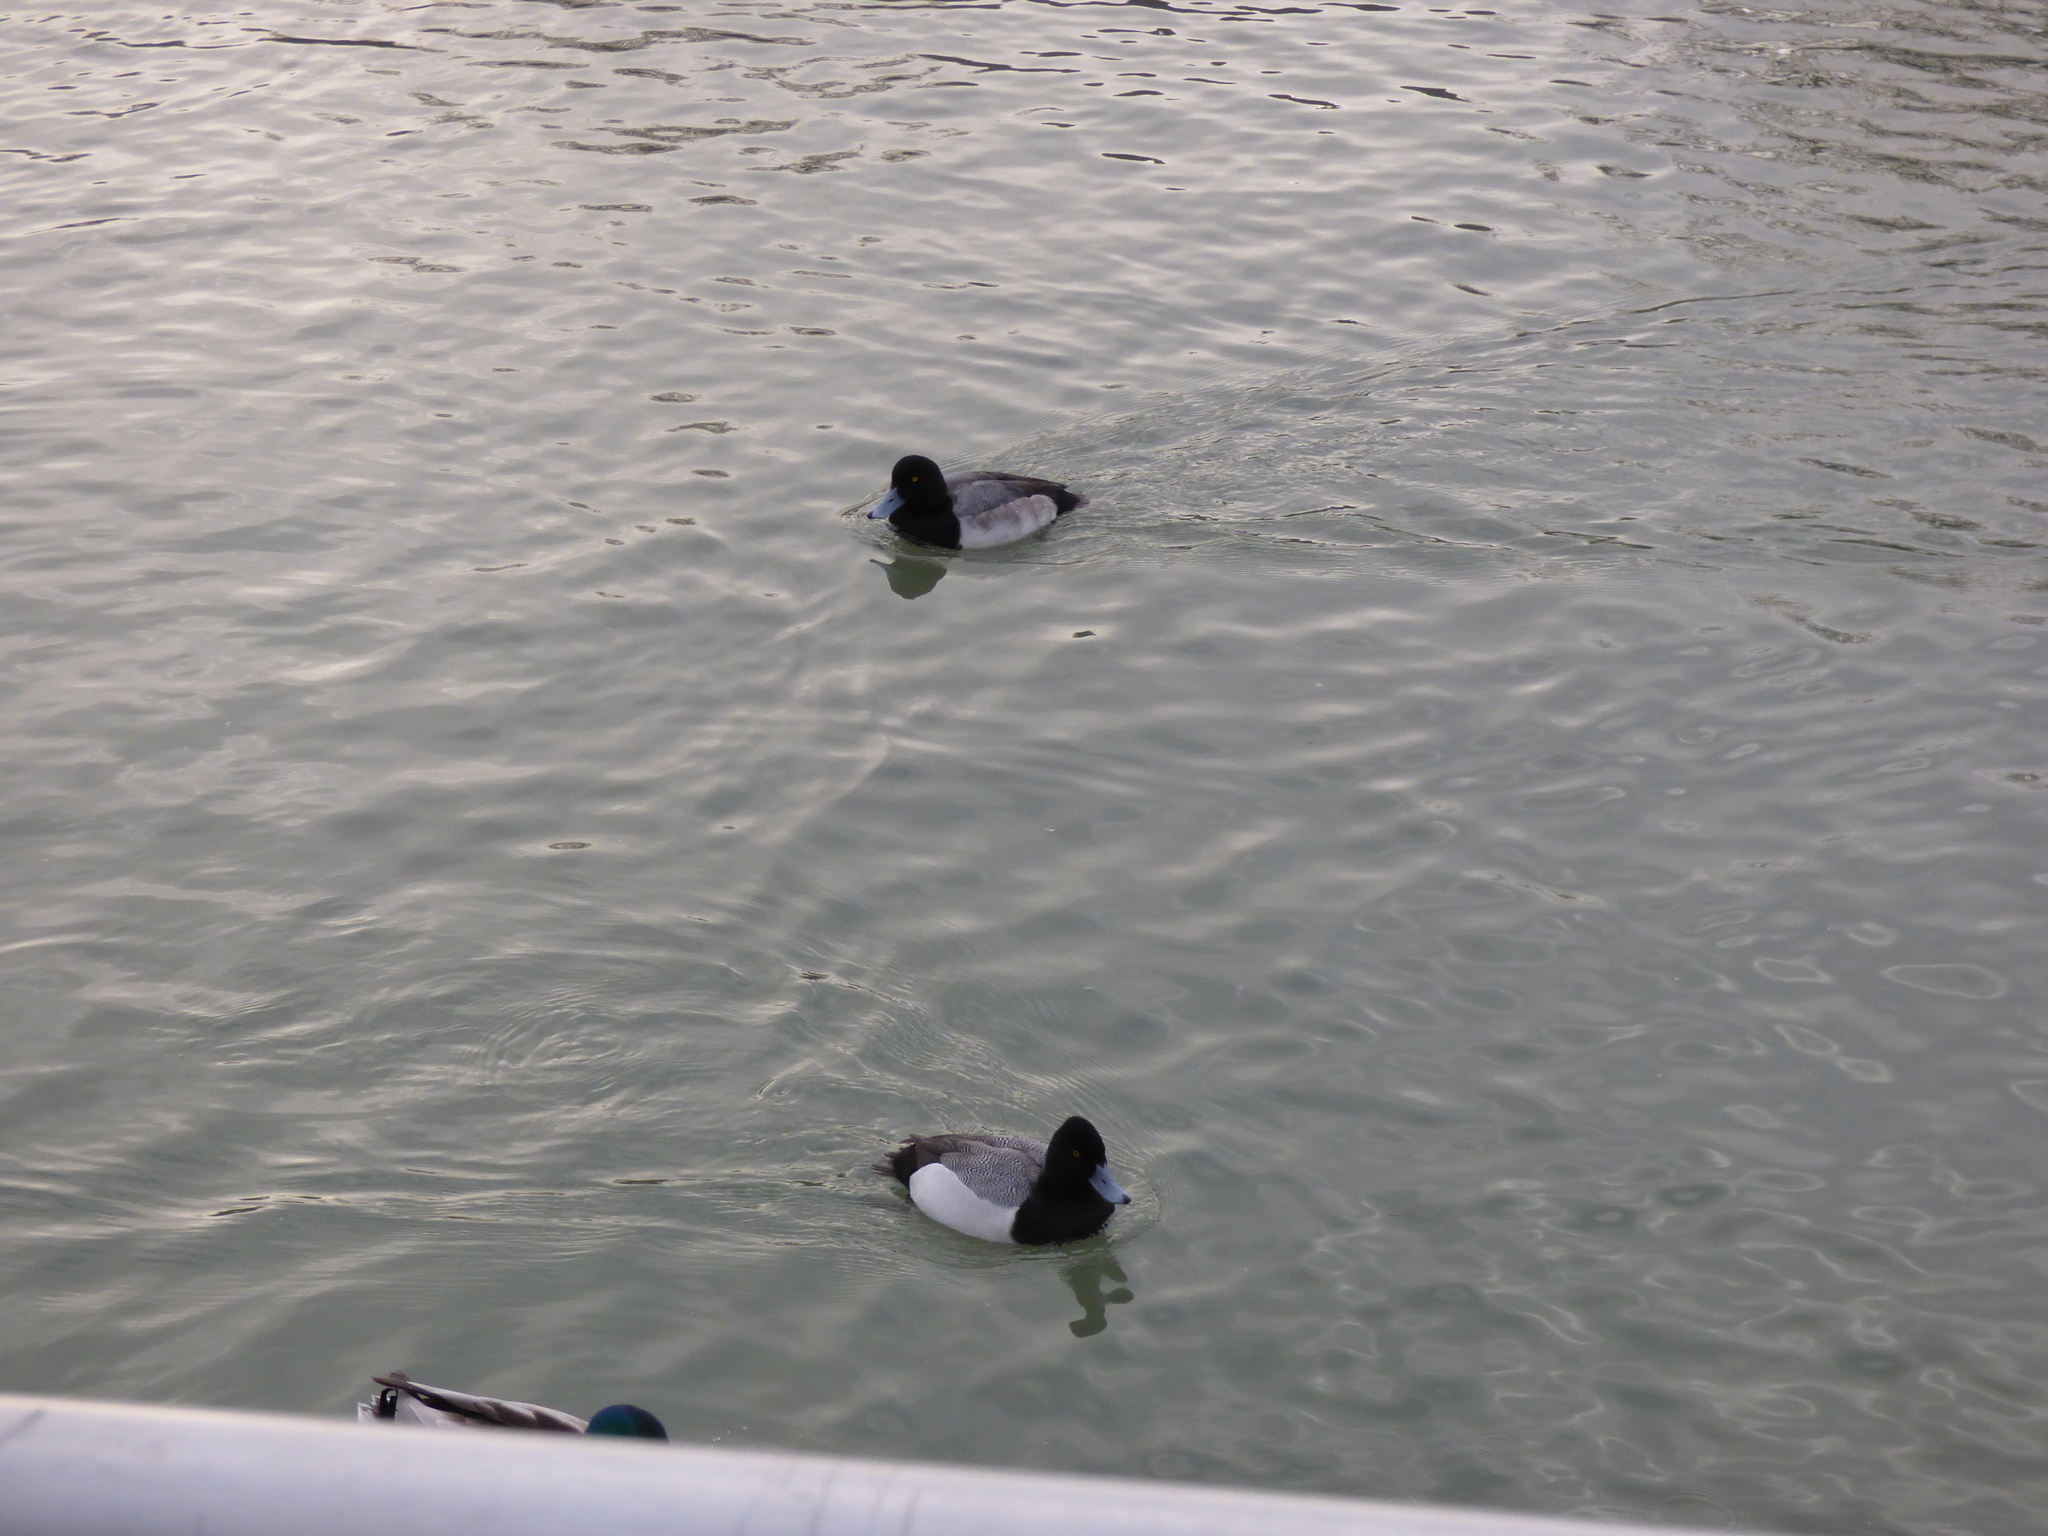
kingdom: Animalia
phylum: Chordata
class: Aves
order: Anseriformes
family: Anatidae
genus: Aythya
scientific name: Aythya marila
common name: Greater scaup
